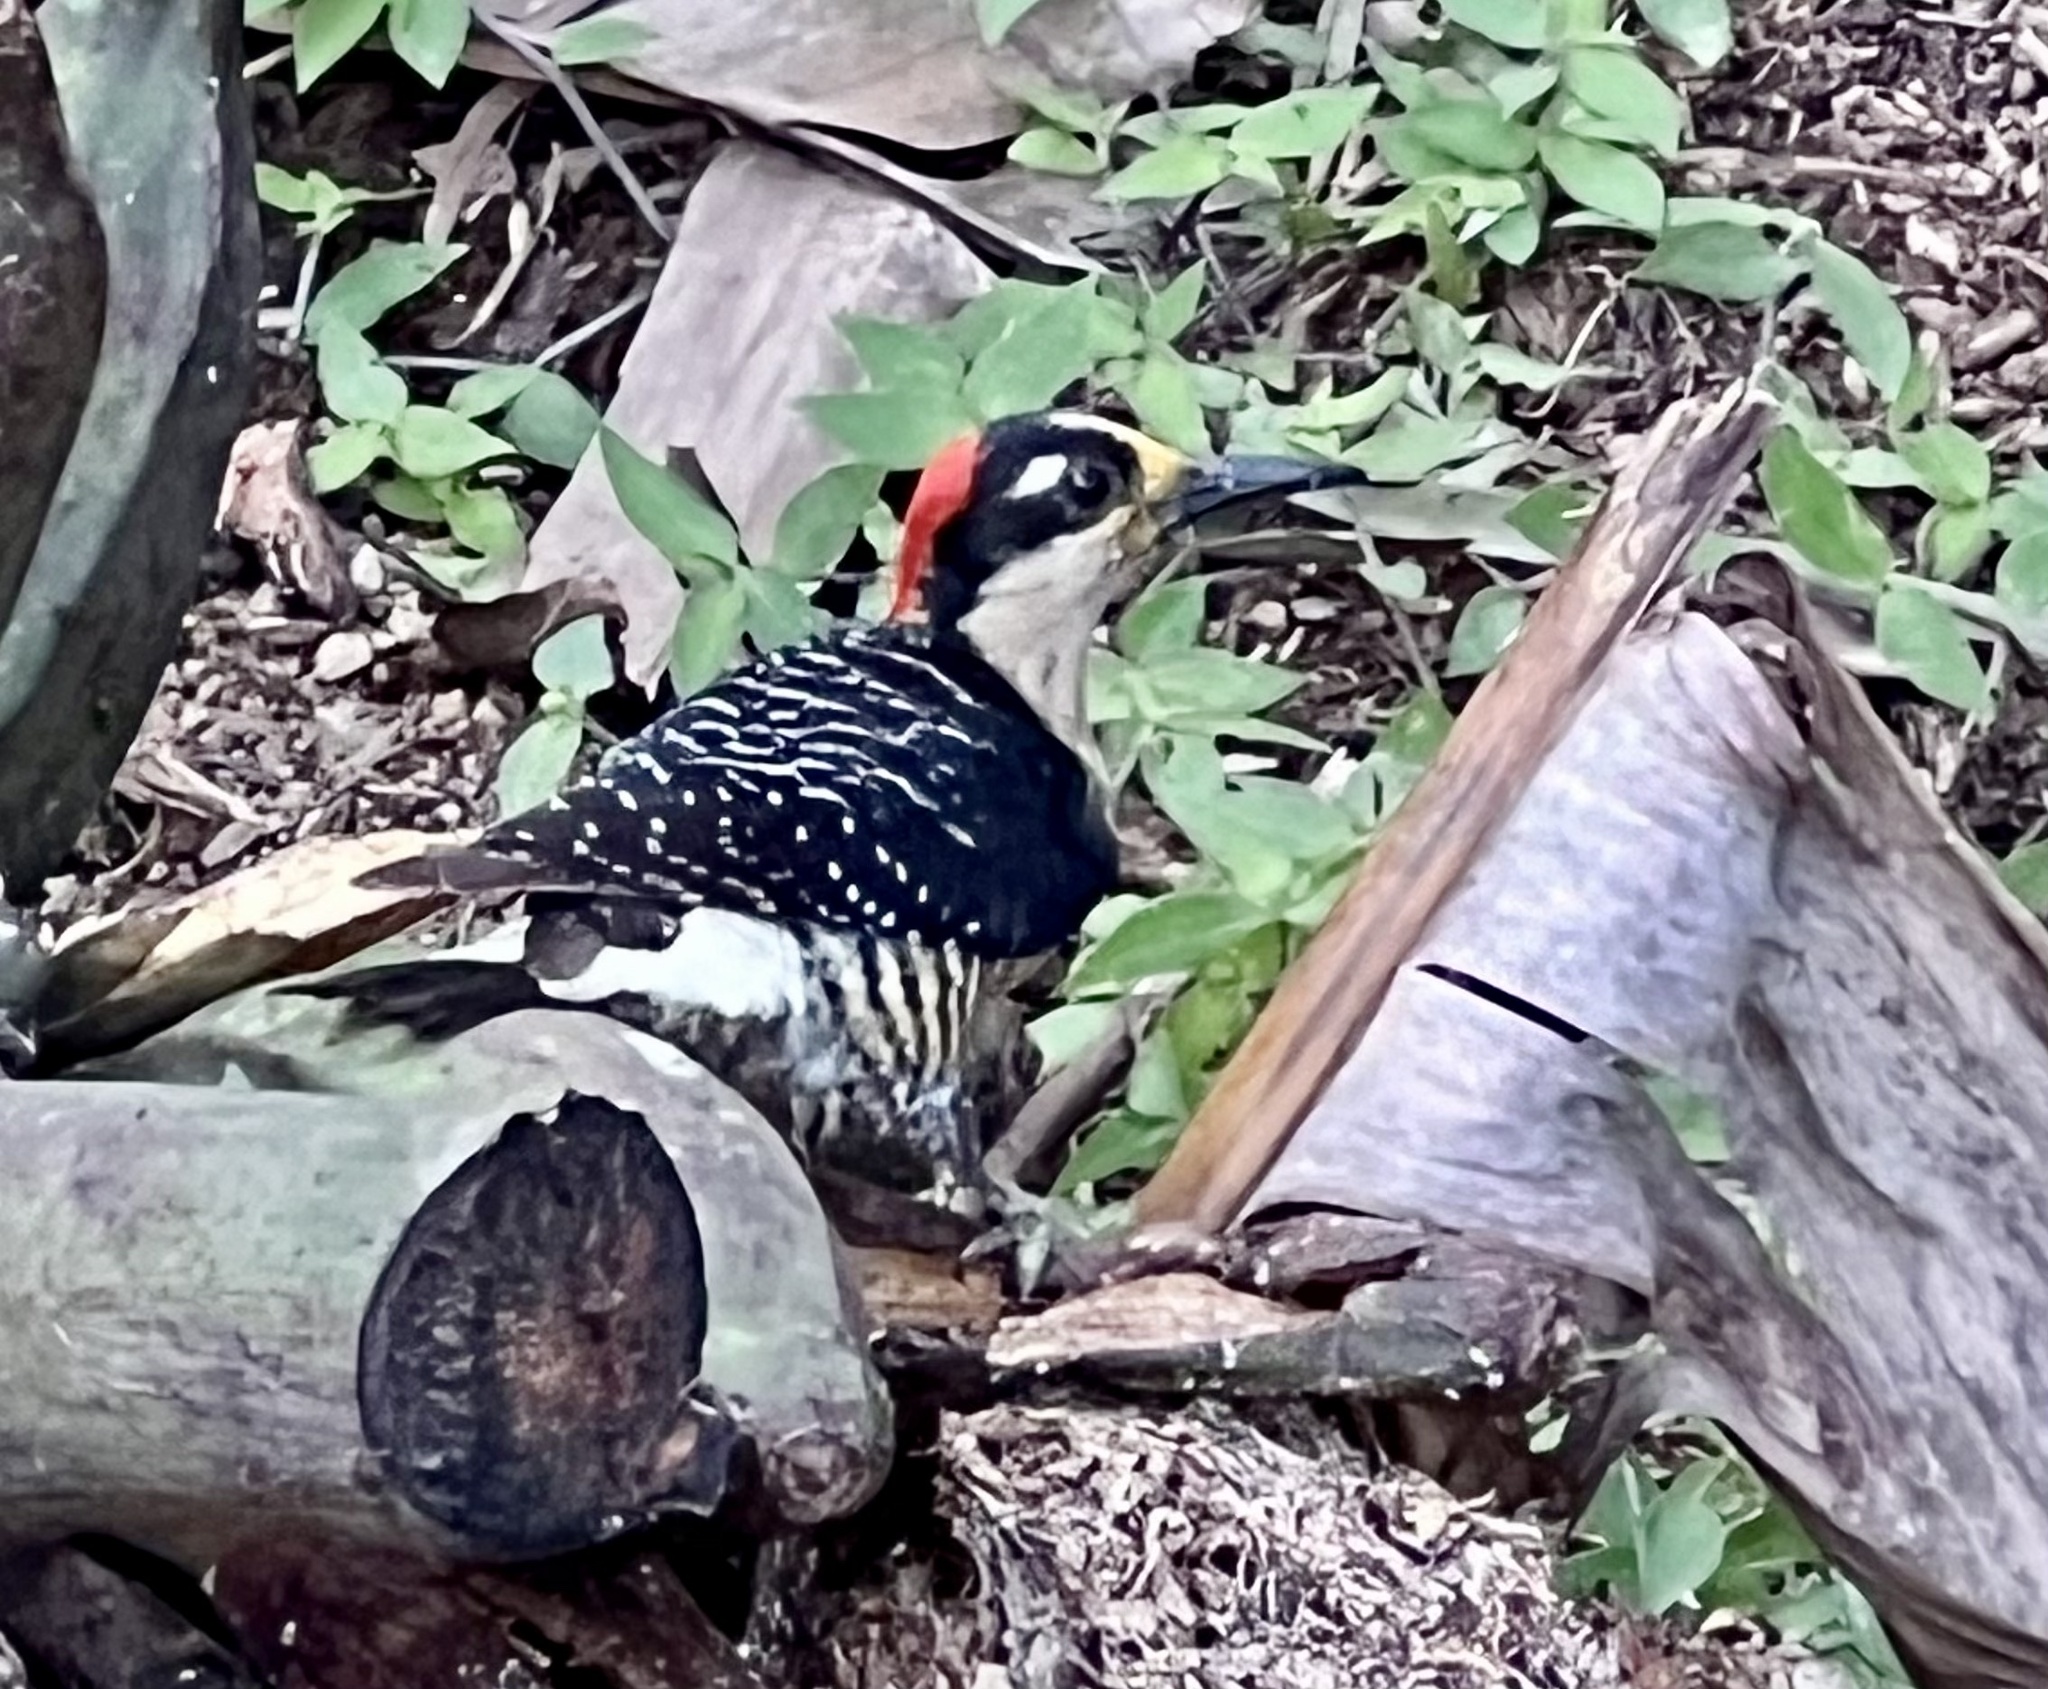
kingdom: Animalia
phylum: Chordata
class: Aves
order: Piciformes
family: Picidae
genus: Melanerpes
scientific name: Melanerpes pucherani
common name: Black-cheeked woodpecker
